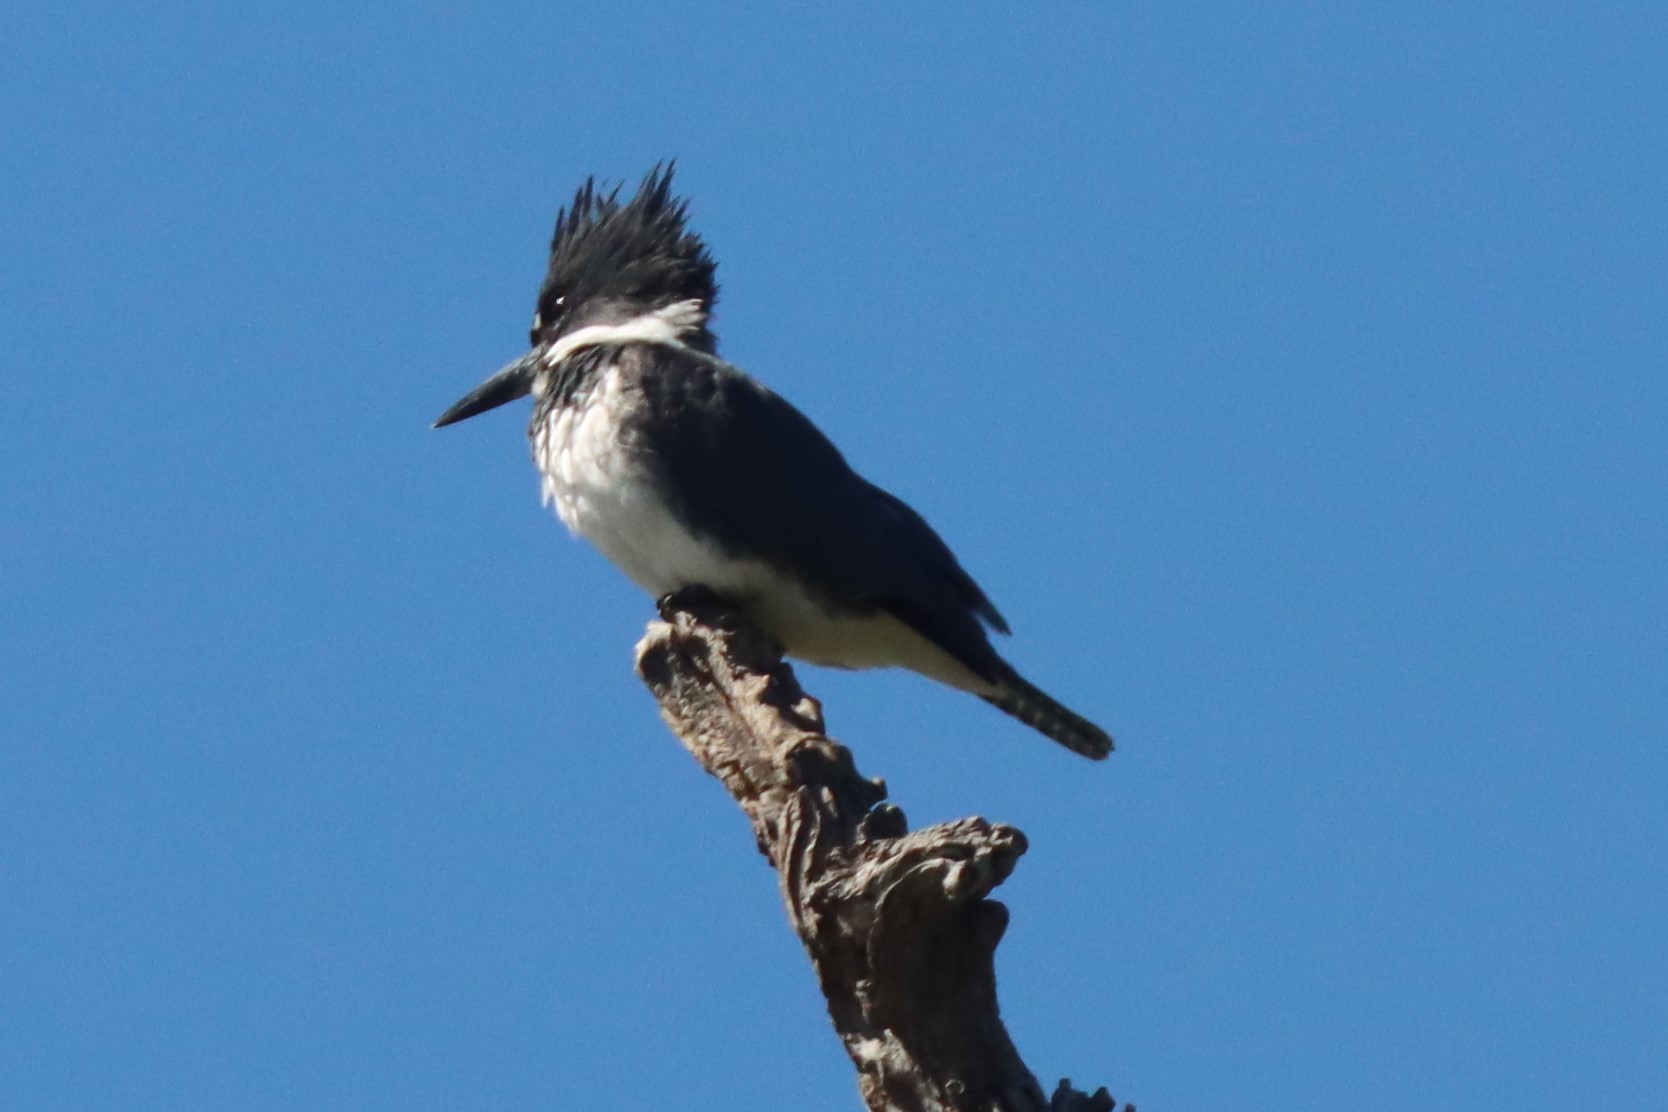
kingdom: Animalia
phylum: Chordata
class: Aves
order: Coraciiformes
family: Alcedinidae
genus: Megaceryle
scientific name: Megaceryle alcyon
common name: Belted kingfisher
